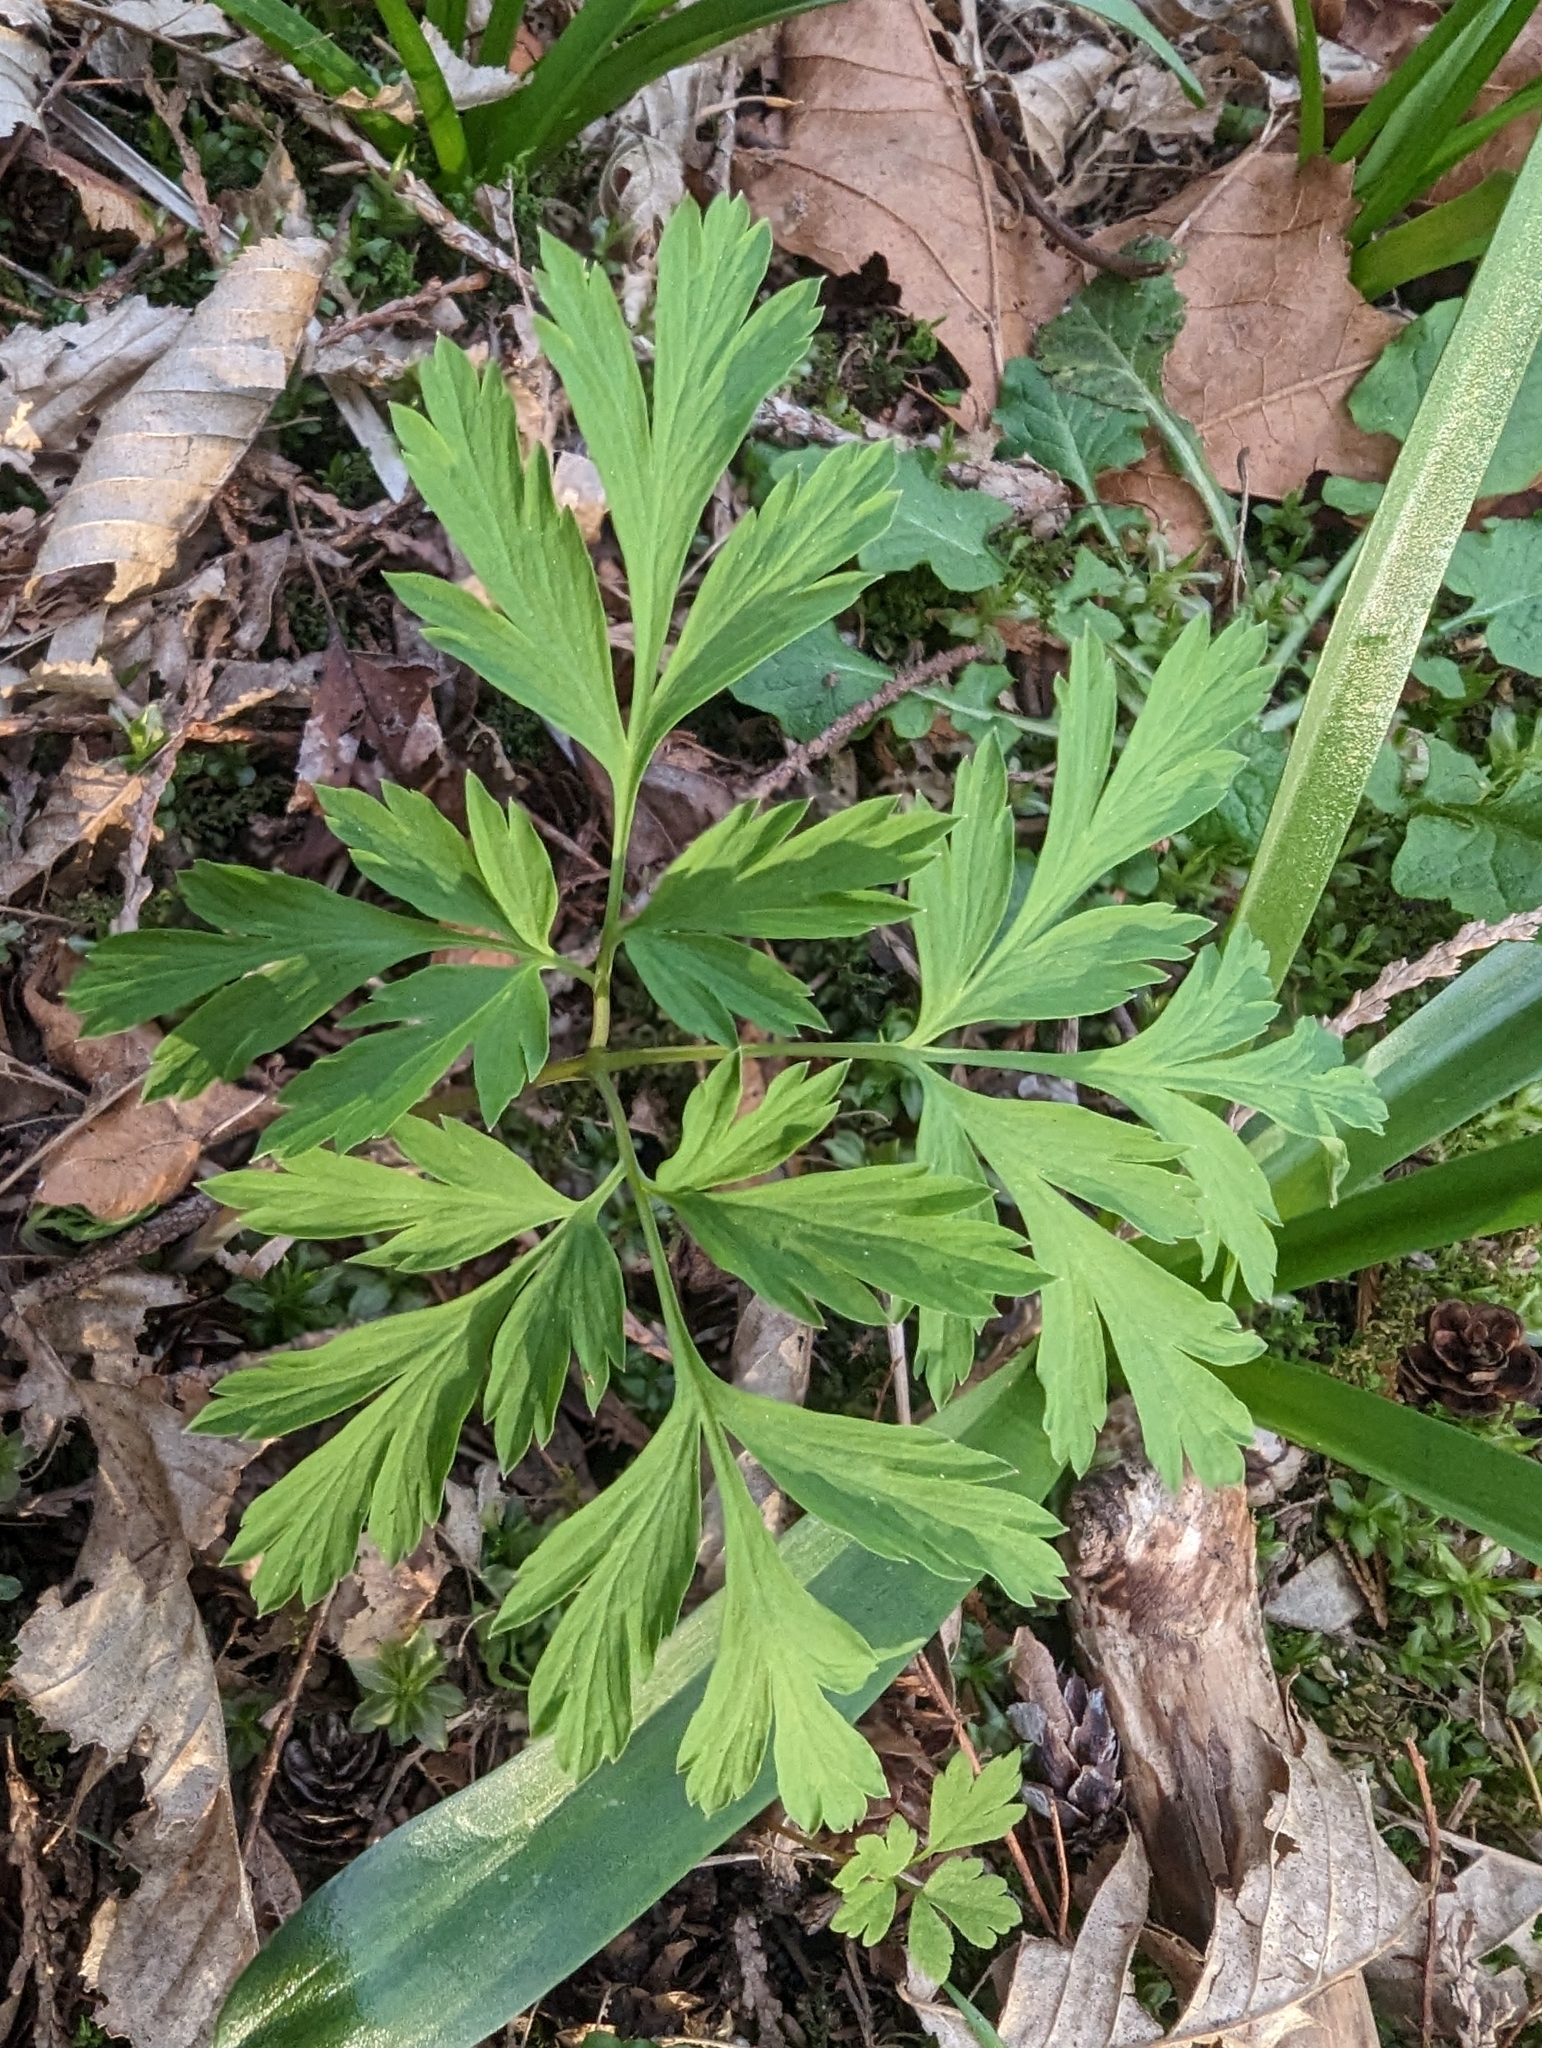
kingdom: Plantae
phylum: Tracheophyta
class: Magnoliopsida
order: Ranunculales
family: Papaveraceae
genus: Dicentra
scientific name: Dicentra formosa
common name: Bleeding-heart
